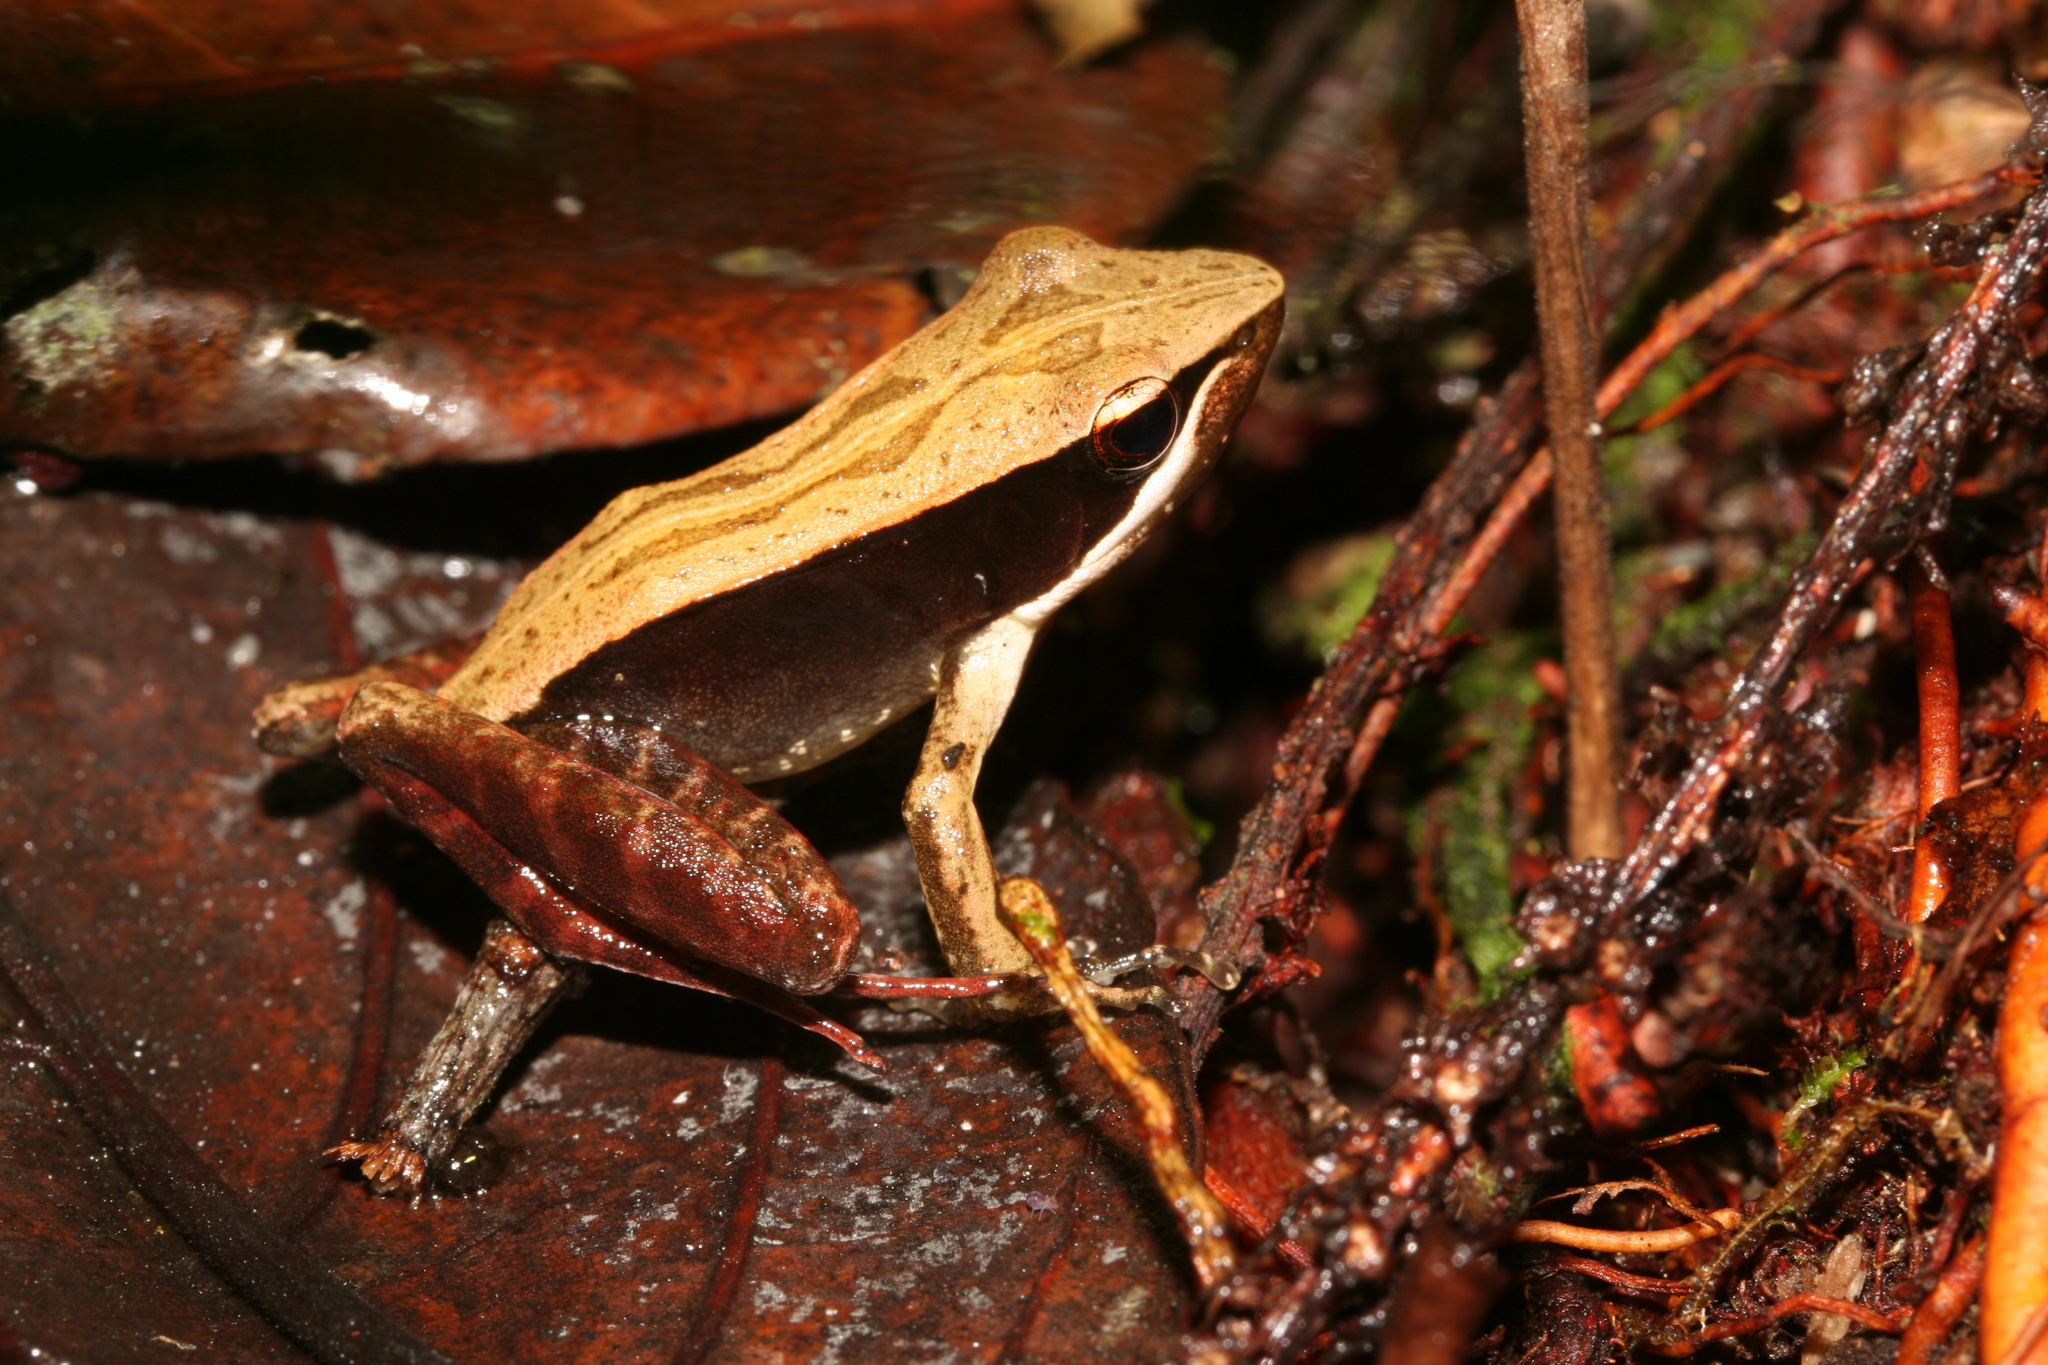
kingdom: Animalia
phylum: Chordata
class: Amphibia
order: Anura
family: Mantellidae
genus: Mantidactylus
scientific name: Mantidactylus melanopleura
